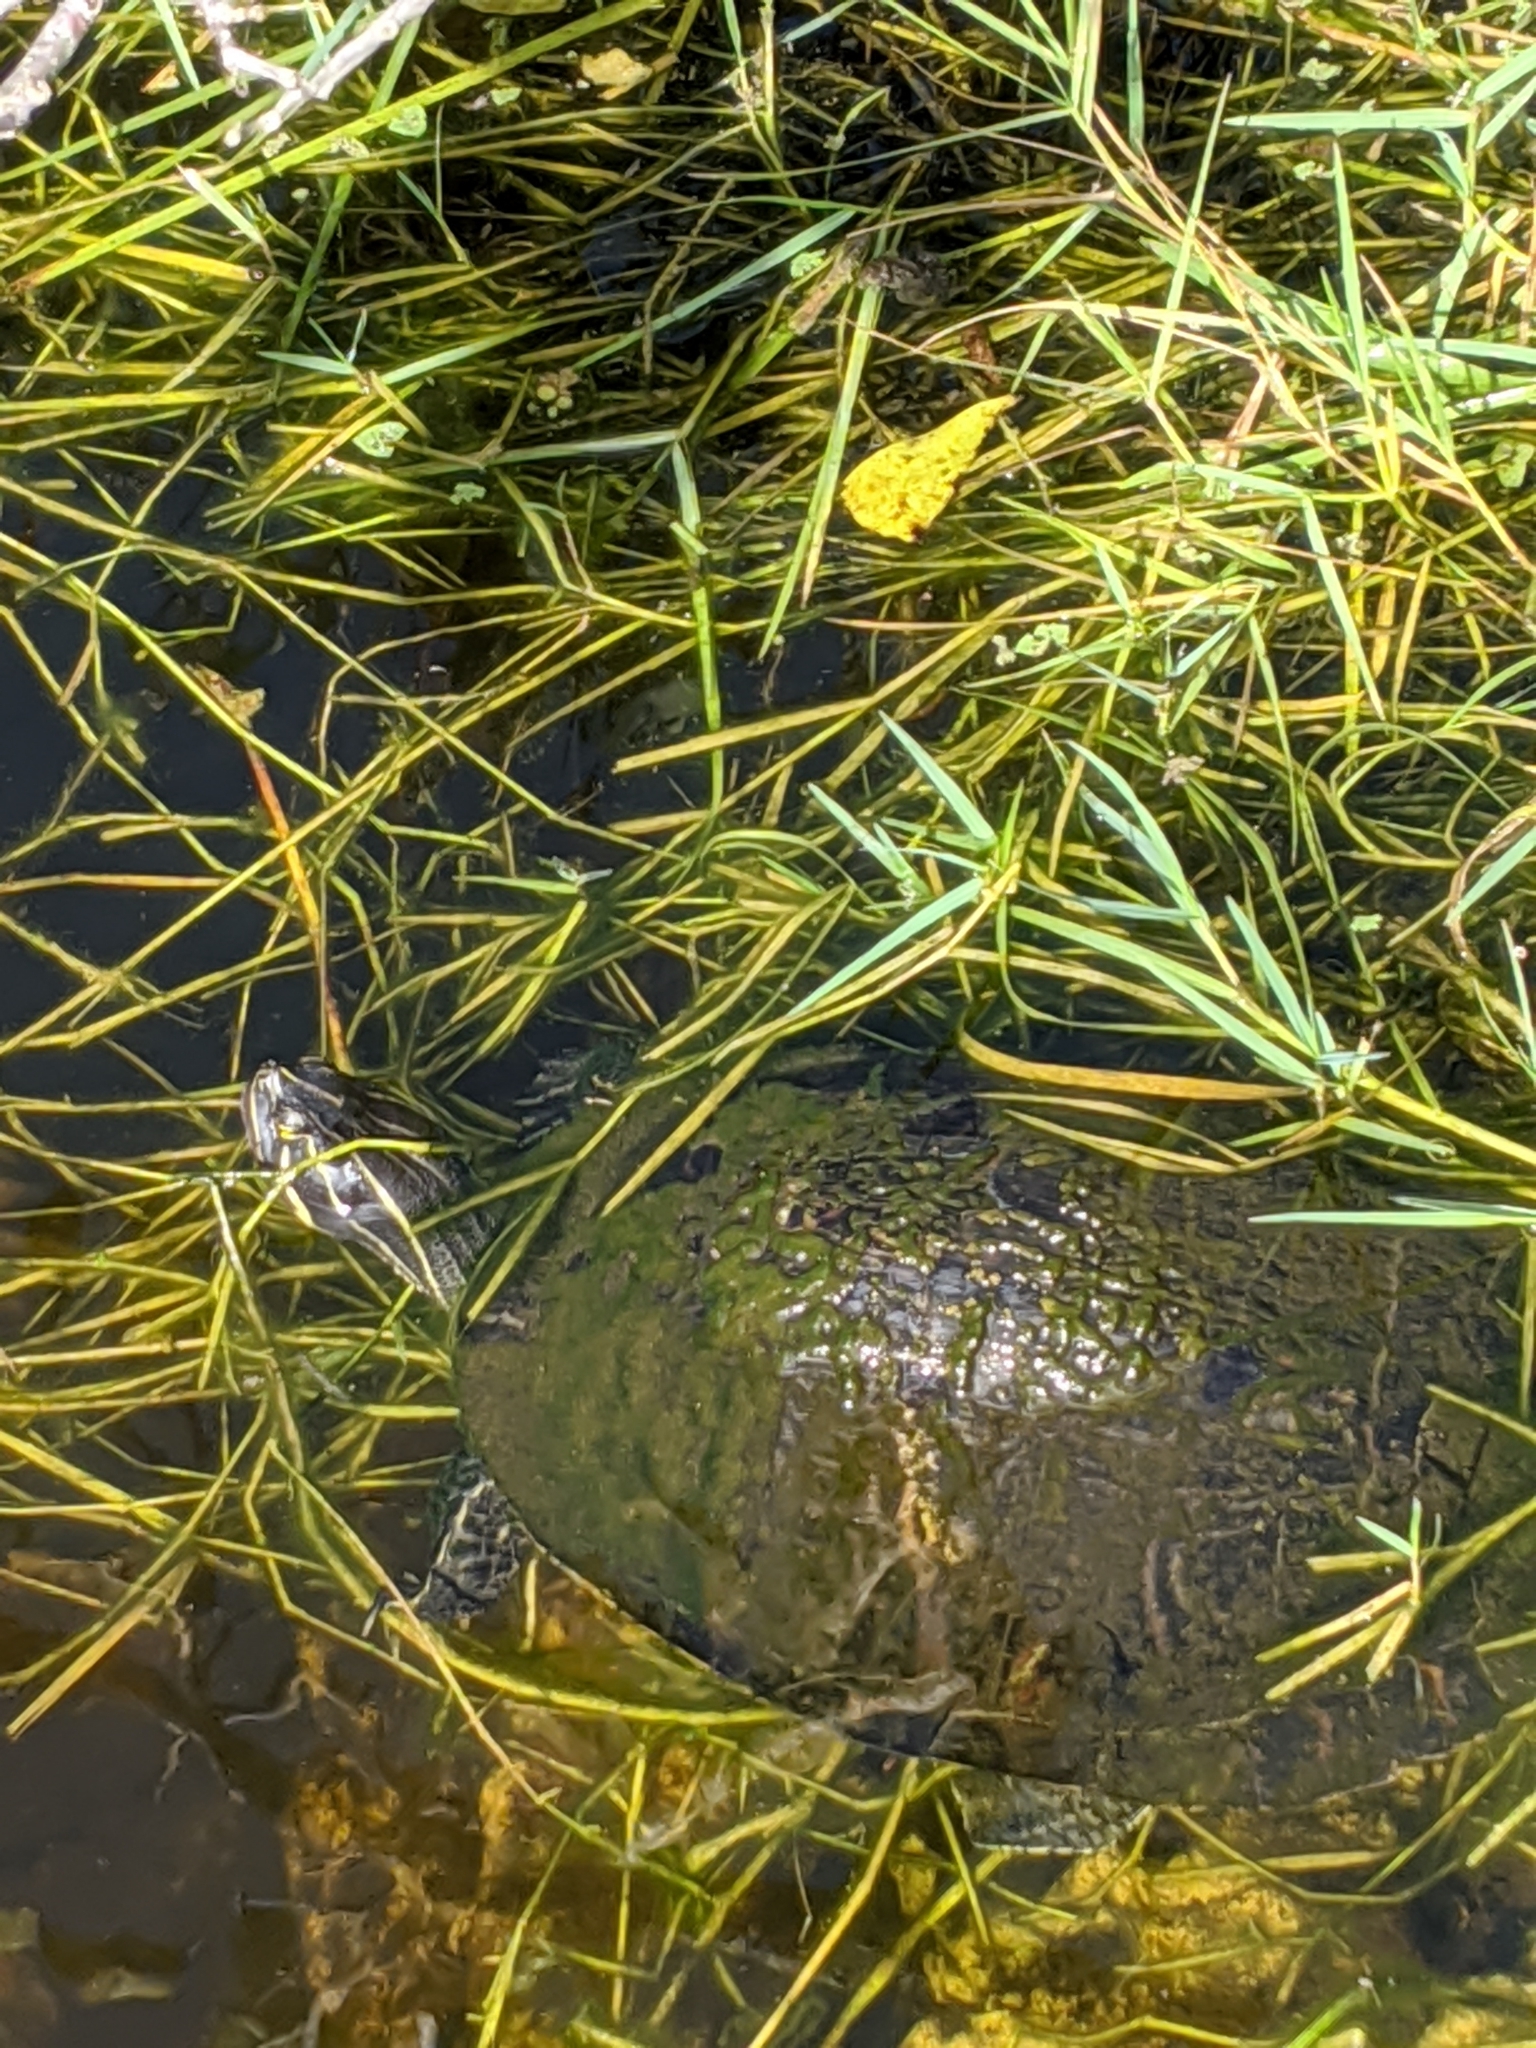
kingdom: Animalia
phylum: Chordata
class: Testudines
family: Emydidae
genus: Pseudemys
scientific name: Pseudemys nelsoni
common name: Florida red-bellied turtle
